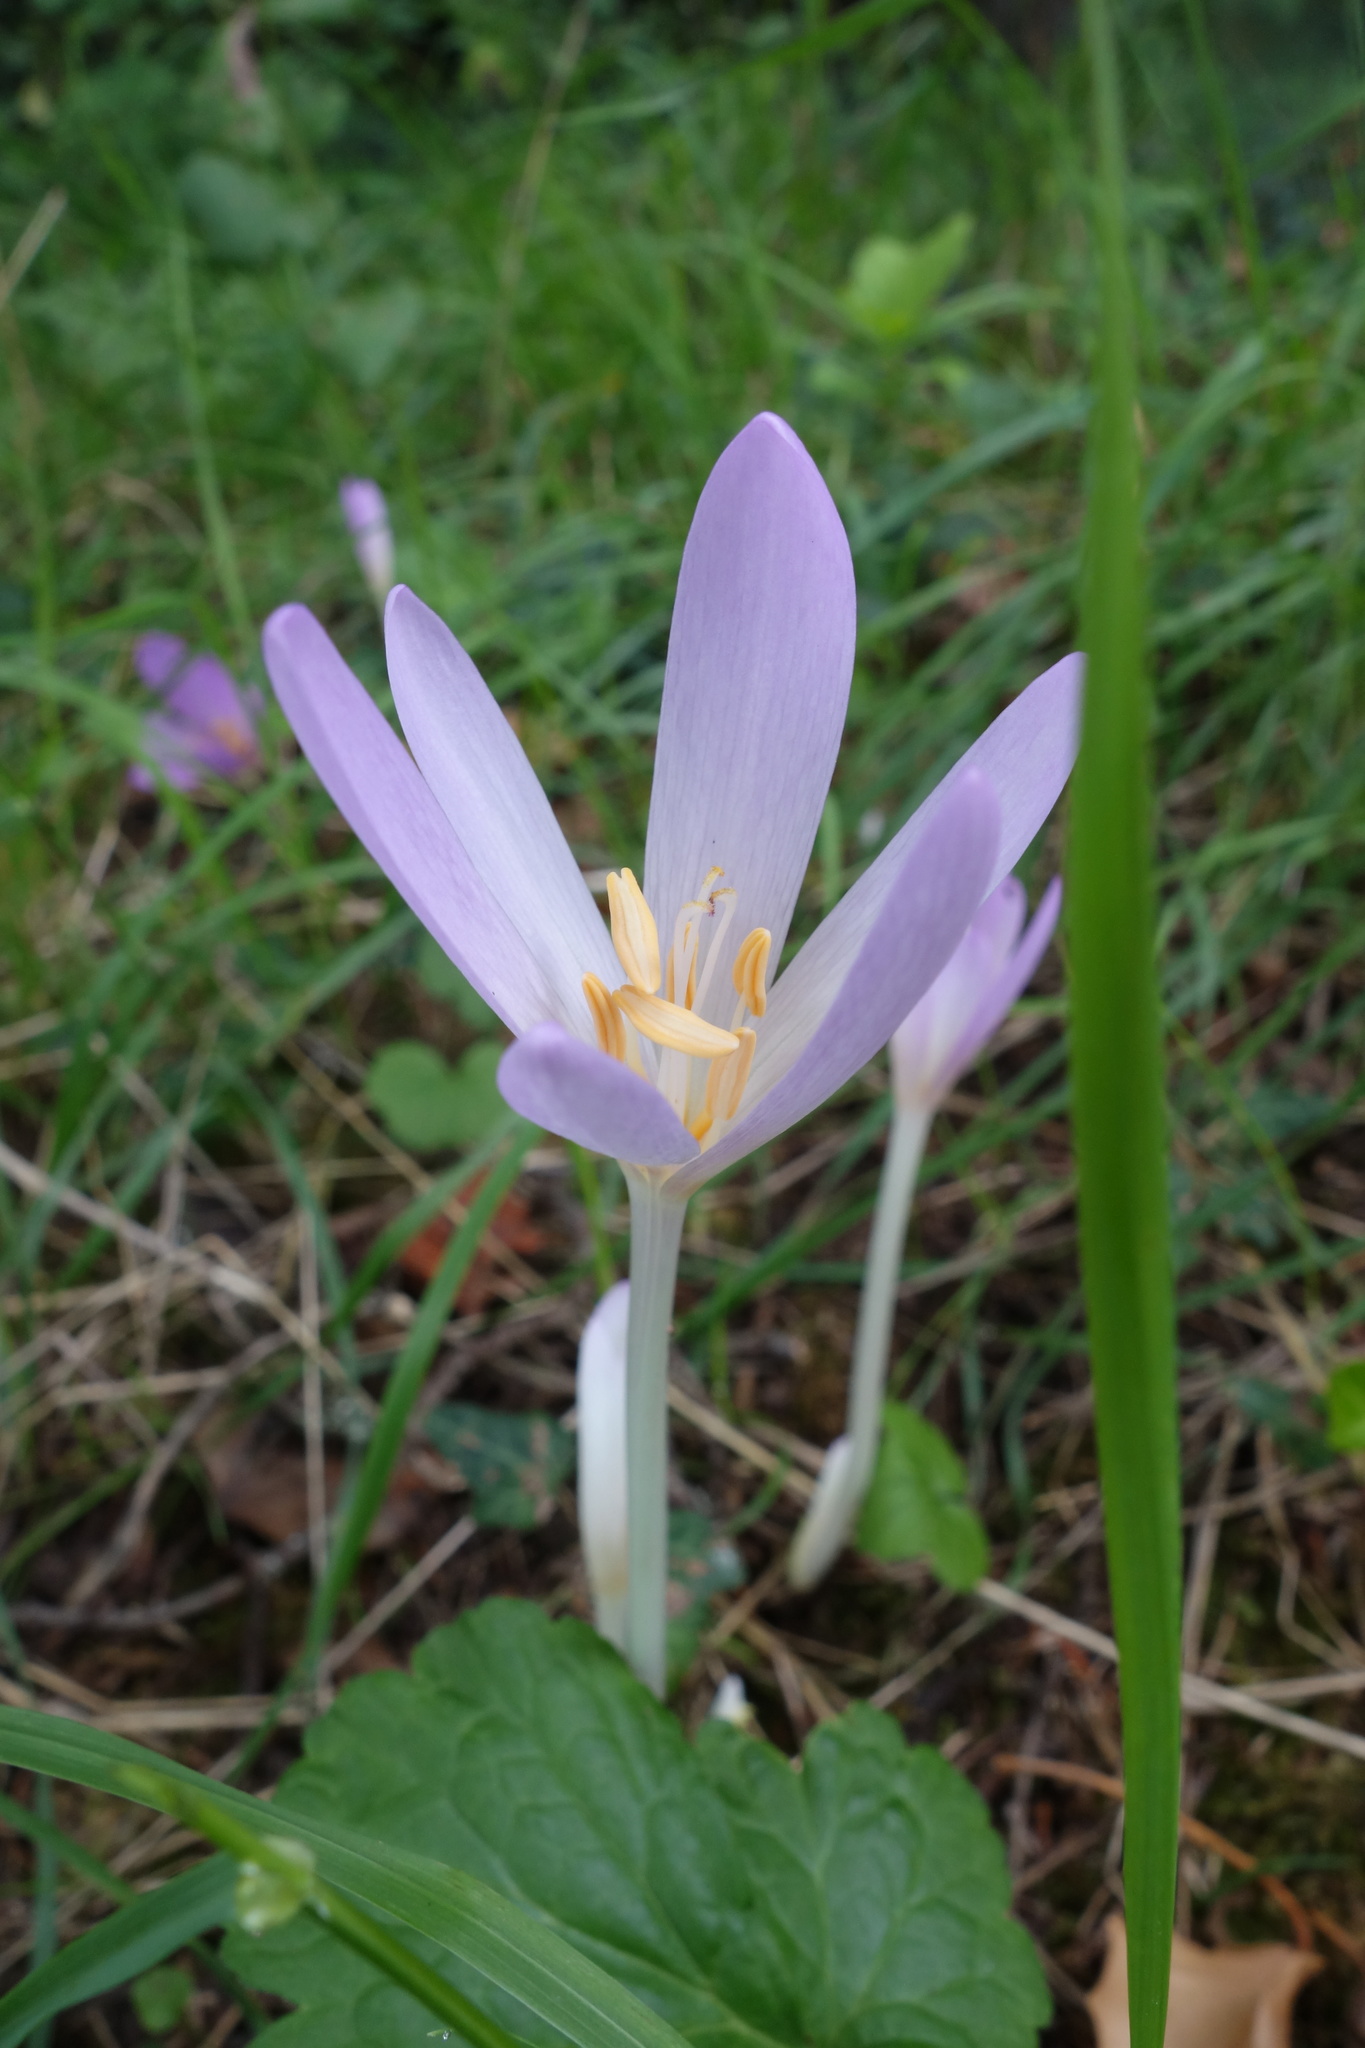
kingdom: Plantae
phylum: Tracheophyta
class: Liliopsida
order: Liliales
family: Colchicaceae
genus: Colchicum
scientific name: Colchicum autumnale
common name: Autumn crocus
